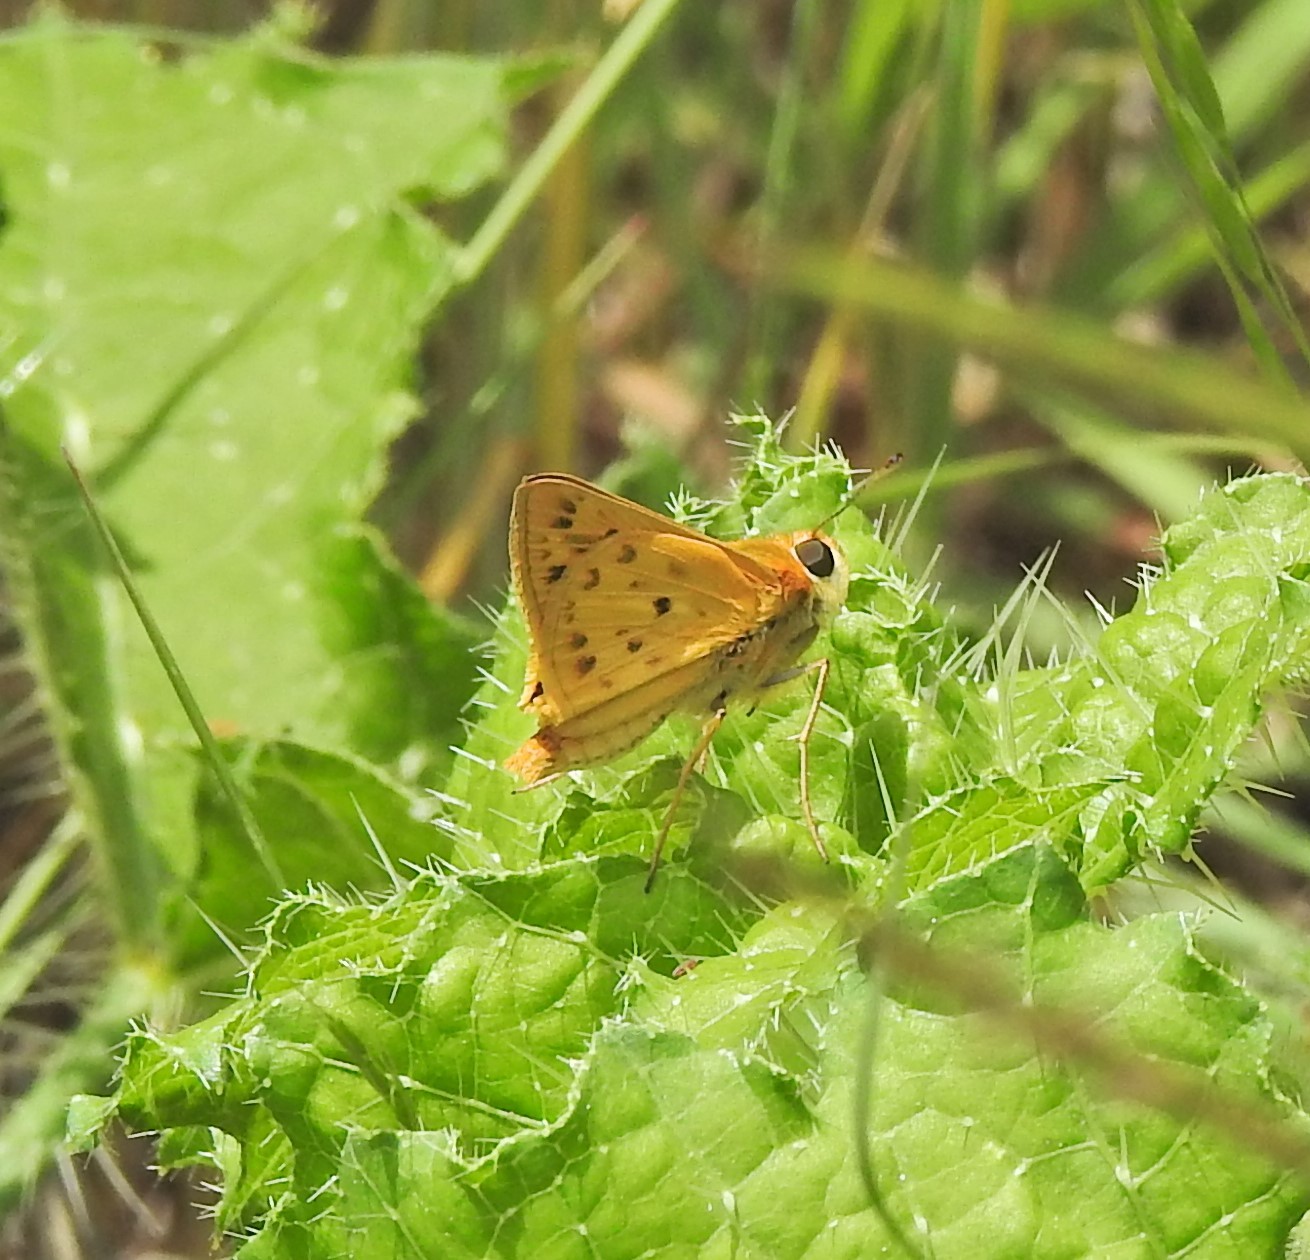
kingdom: Animalia
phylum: Arthropoda
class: Insecta
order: Lepidoptera
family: Hesperiidae
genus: Hylephila
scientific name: Hylephila phyleus
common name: Fiery skipper
